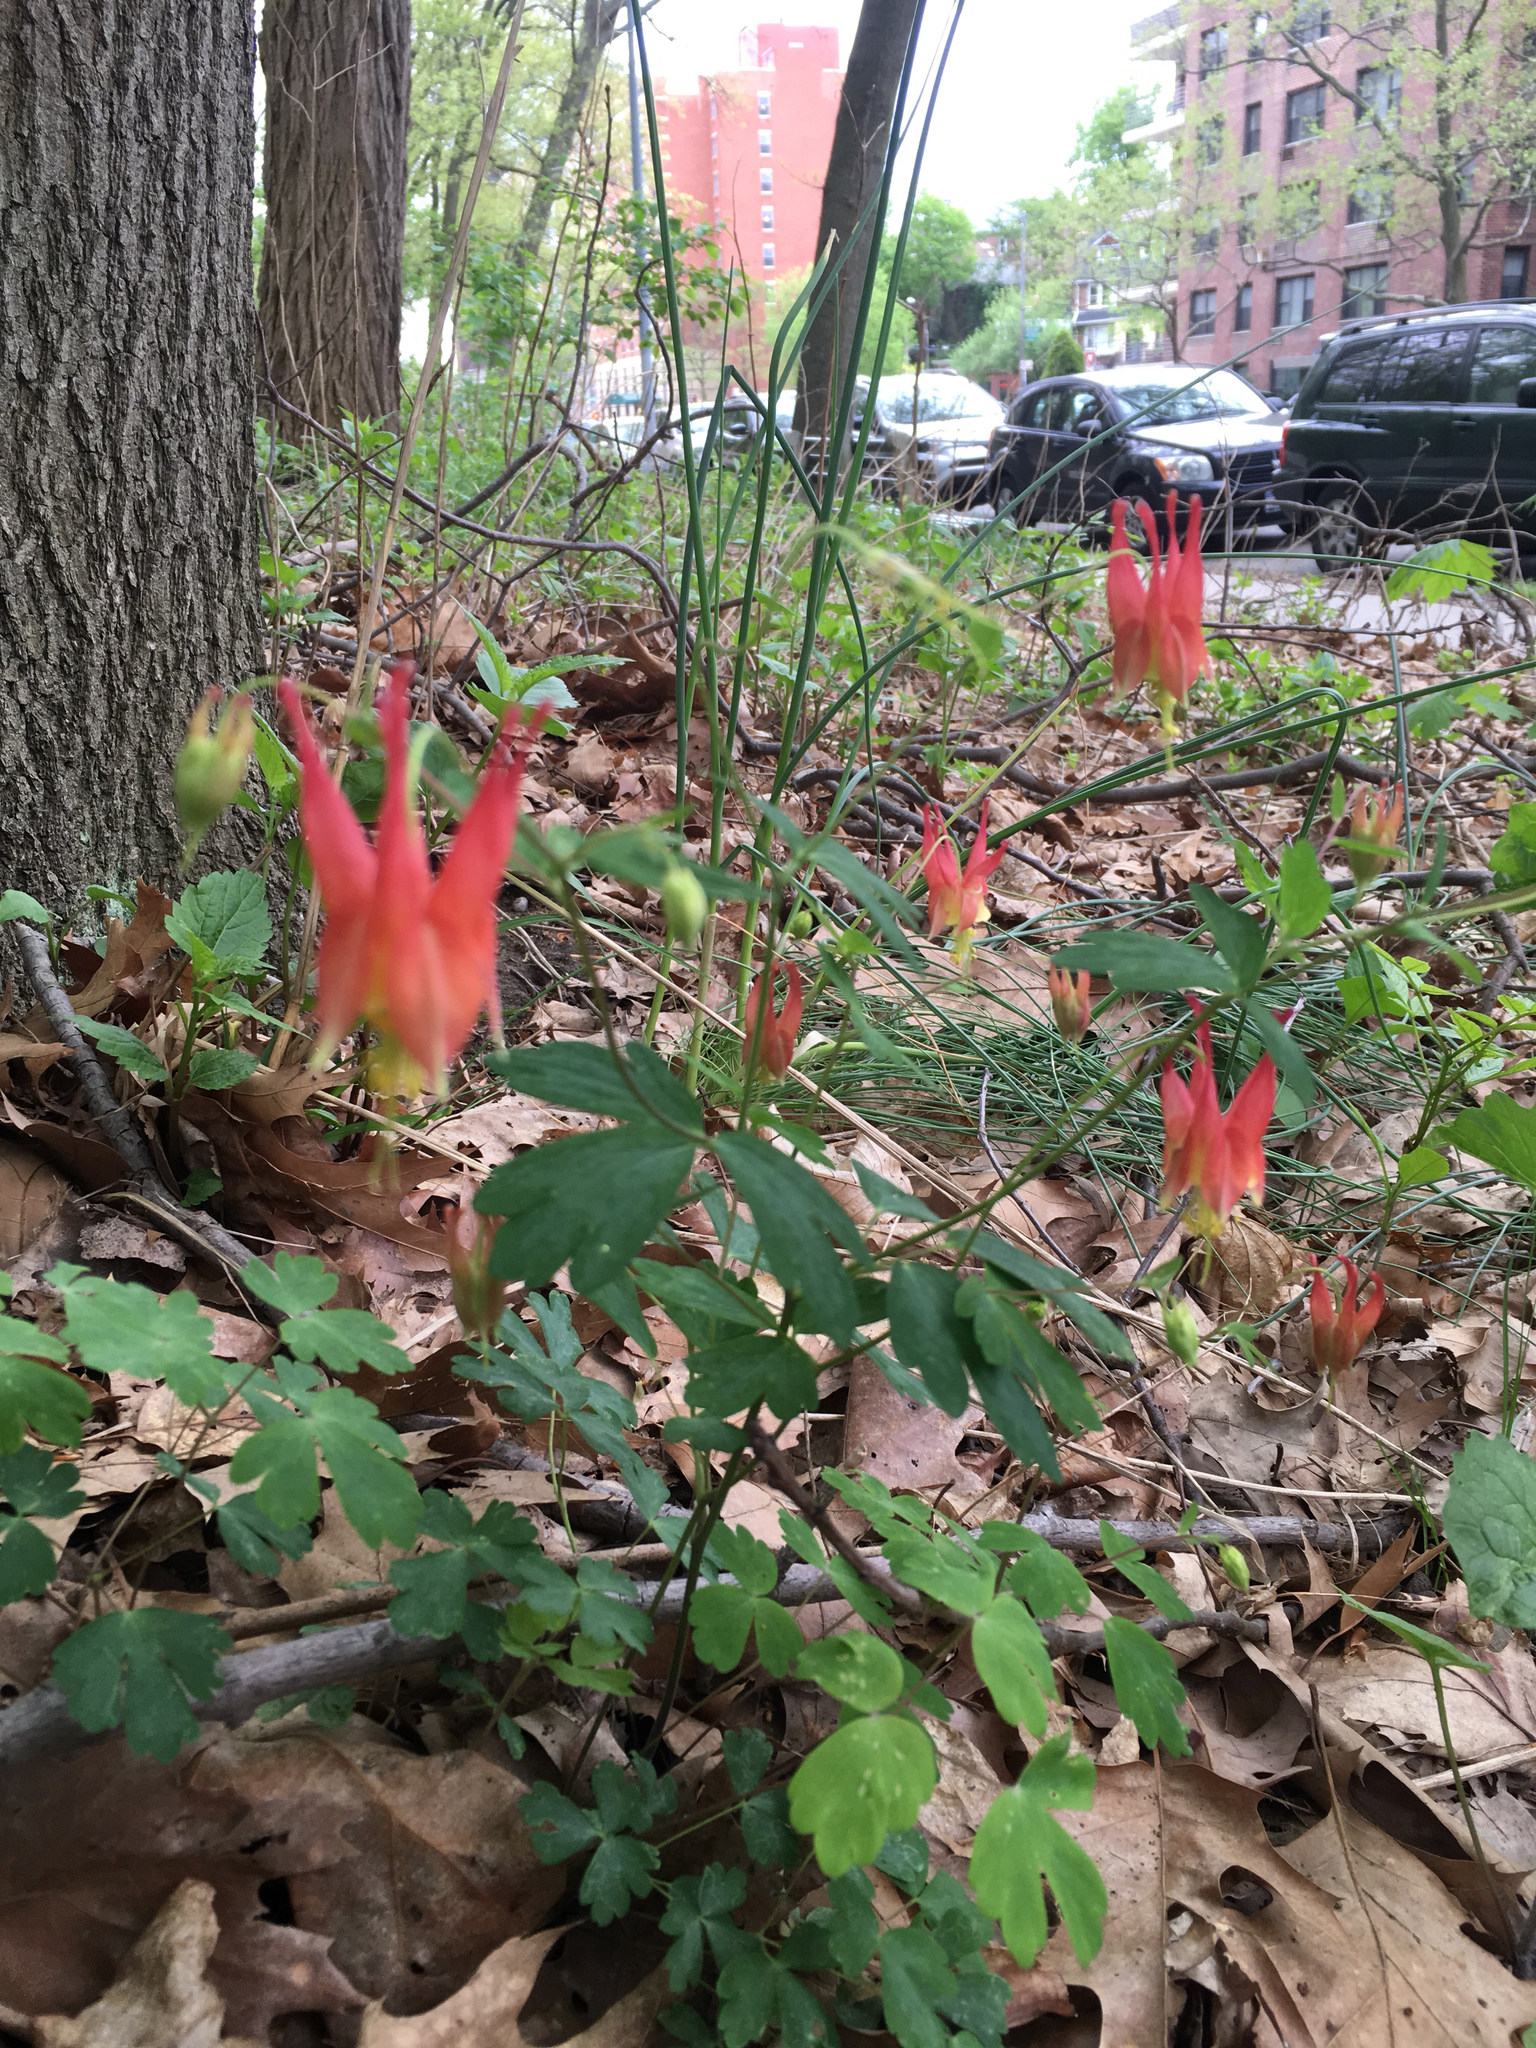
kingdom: Plantae
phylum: Tracheophyta
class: Magnoliopsida
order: Ranunculales
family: Ranunculaceae
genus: Aquilegia
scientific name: Aquilegia canadensis
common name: American columbine
